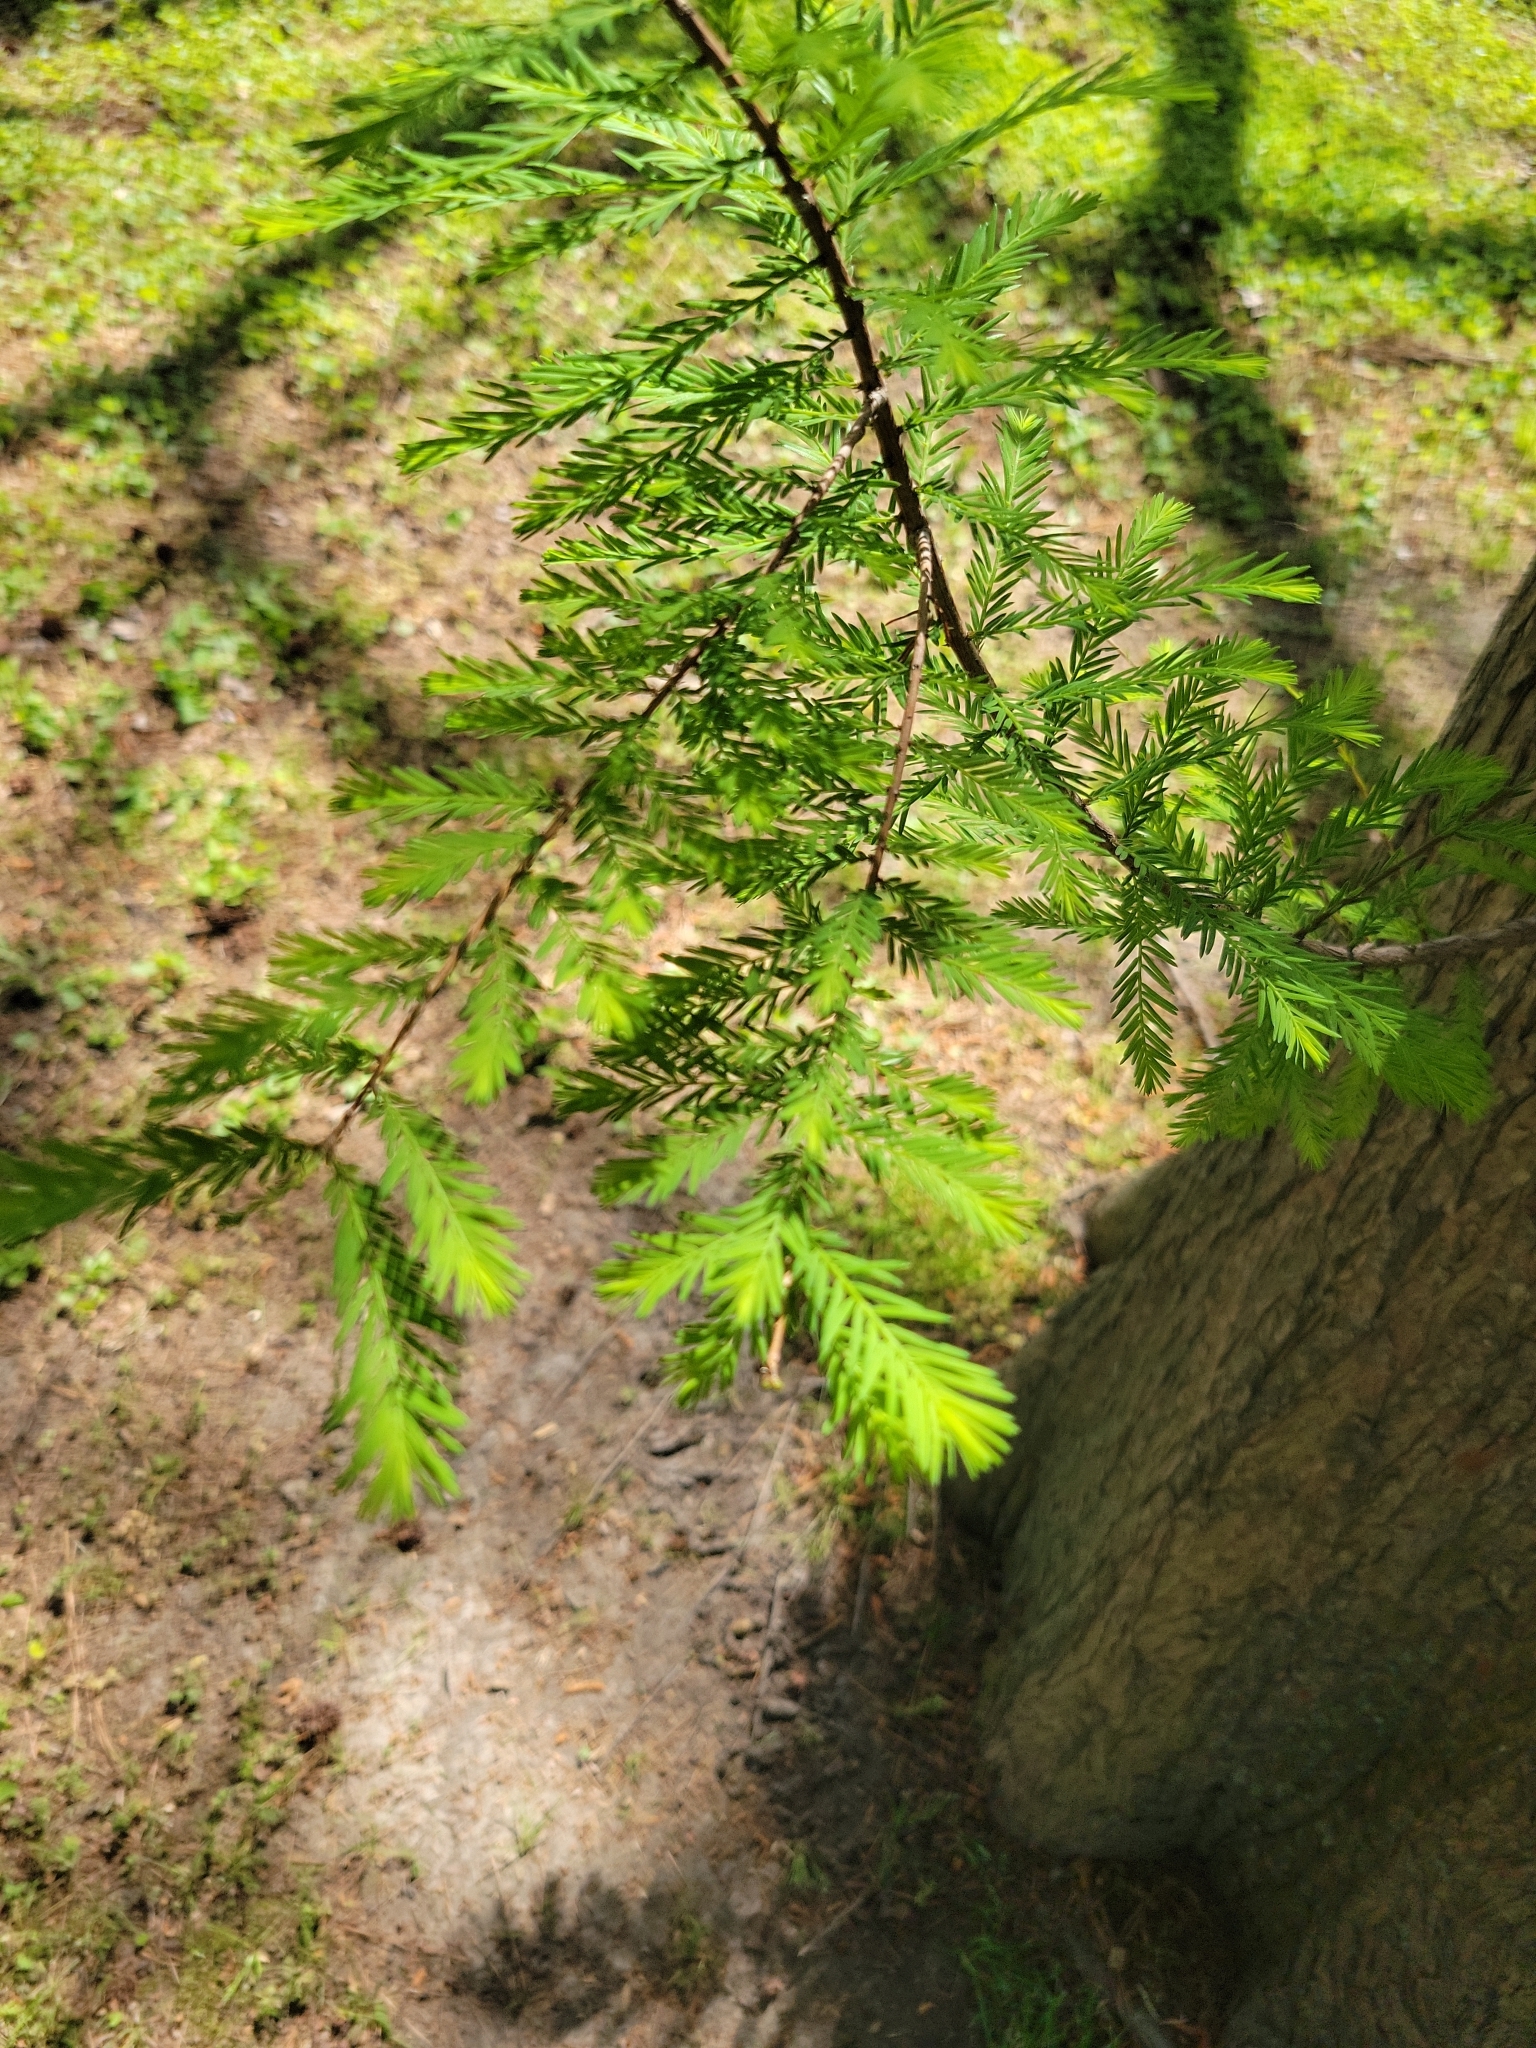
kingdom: Plantae
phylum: Tracheophyta
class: Pinopsida
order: Pinales
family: Cupressaceae
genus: Taxodium
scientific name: Taxodium distichum
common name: Bald cypress
